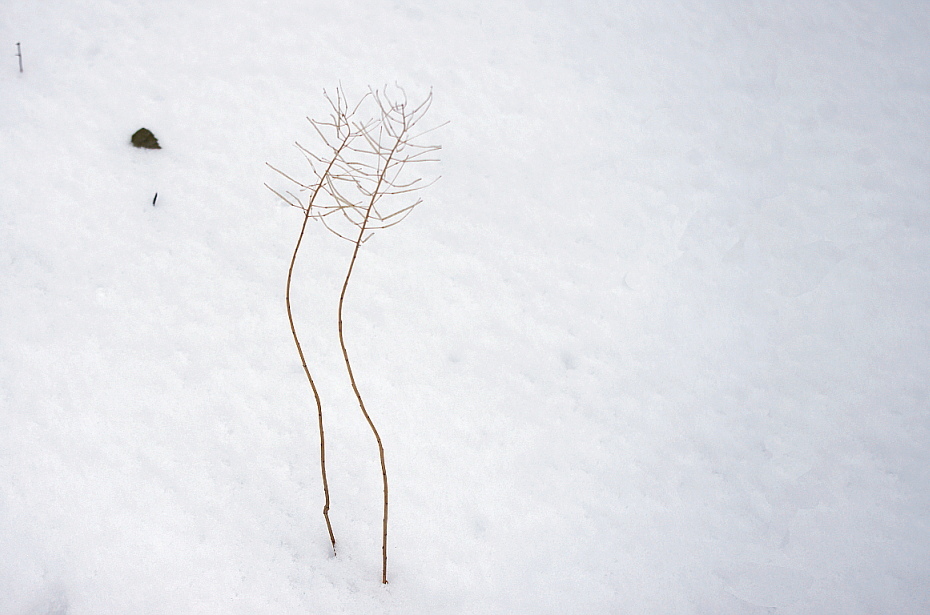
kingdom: Plantae
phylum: Tracheophyta
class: Magnoliopsida
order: Brassicales
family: Brassicaceae
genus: Erysimum
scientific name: Erysimum cheiranthoides
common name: Treacle mustard
